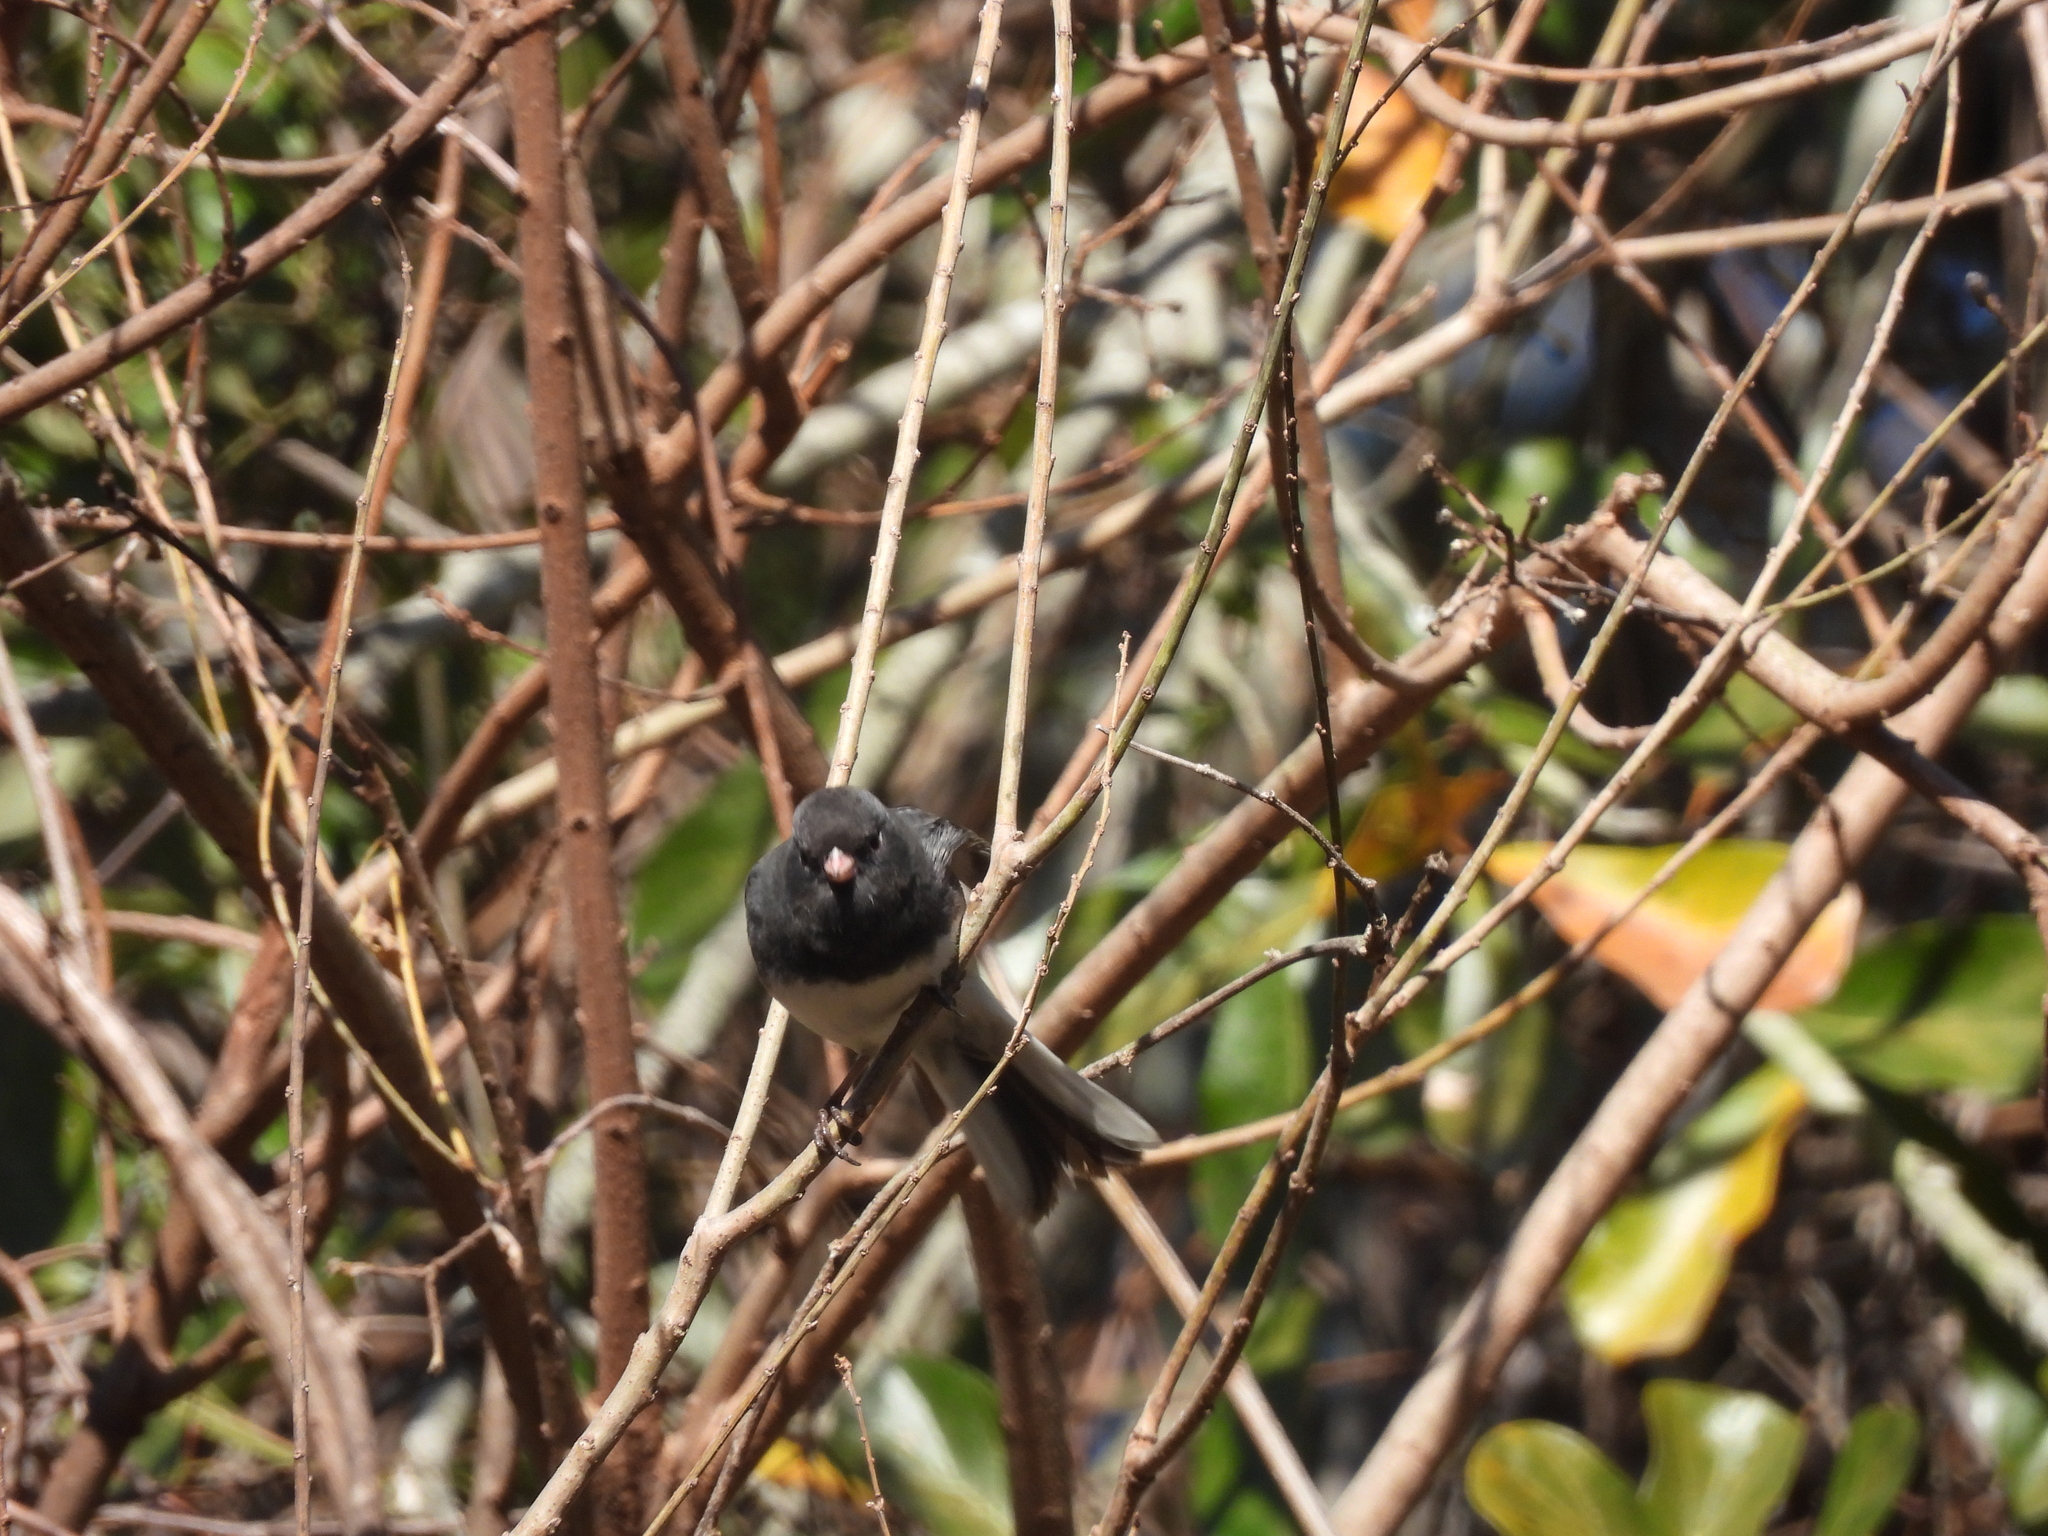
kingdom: Animalia
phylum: Chordata
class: Aves
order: Passeriformes
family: Passerellidae
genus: Junco
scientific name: Junco hyemalis
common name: Dark-eyed junco
